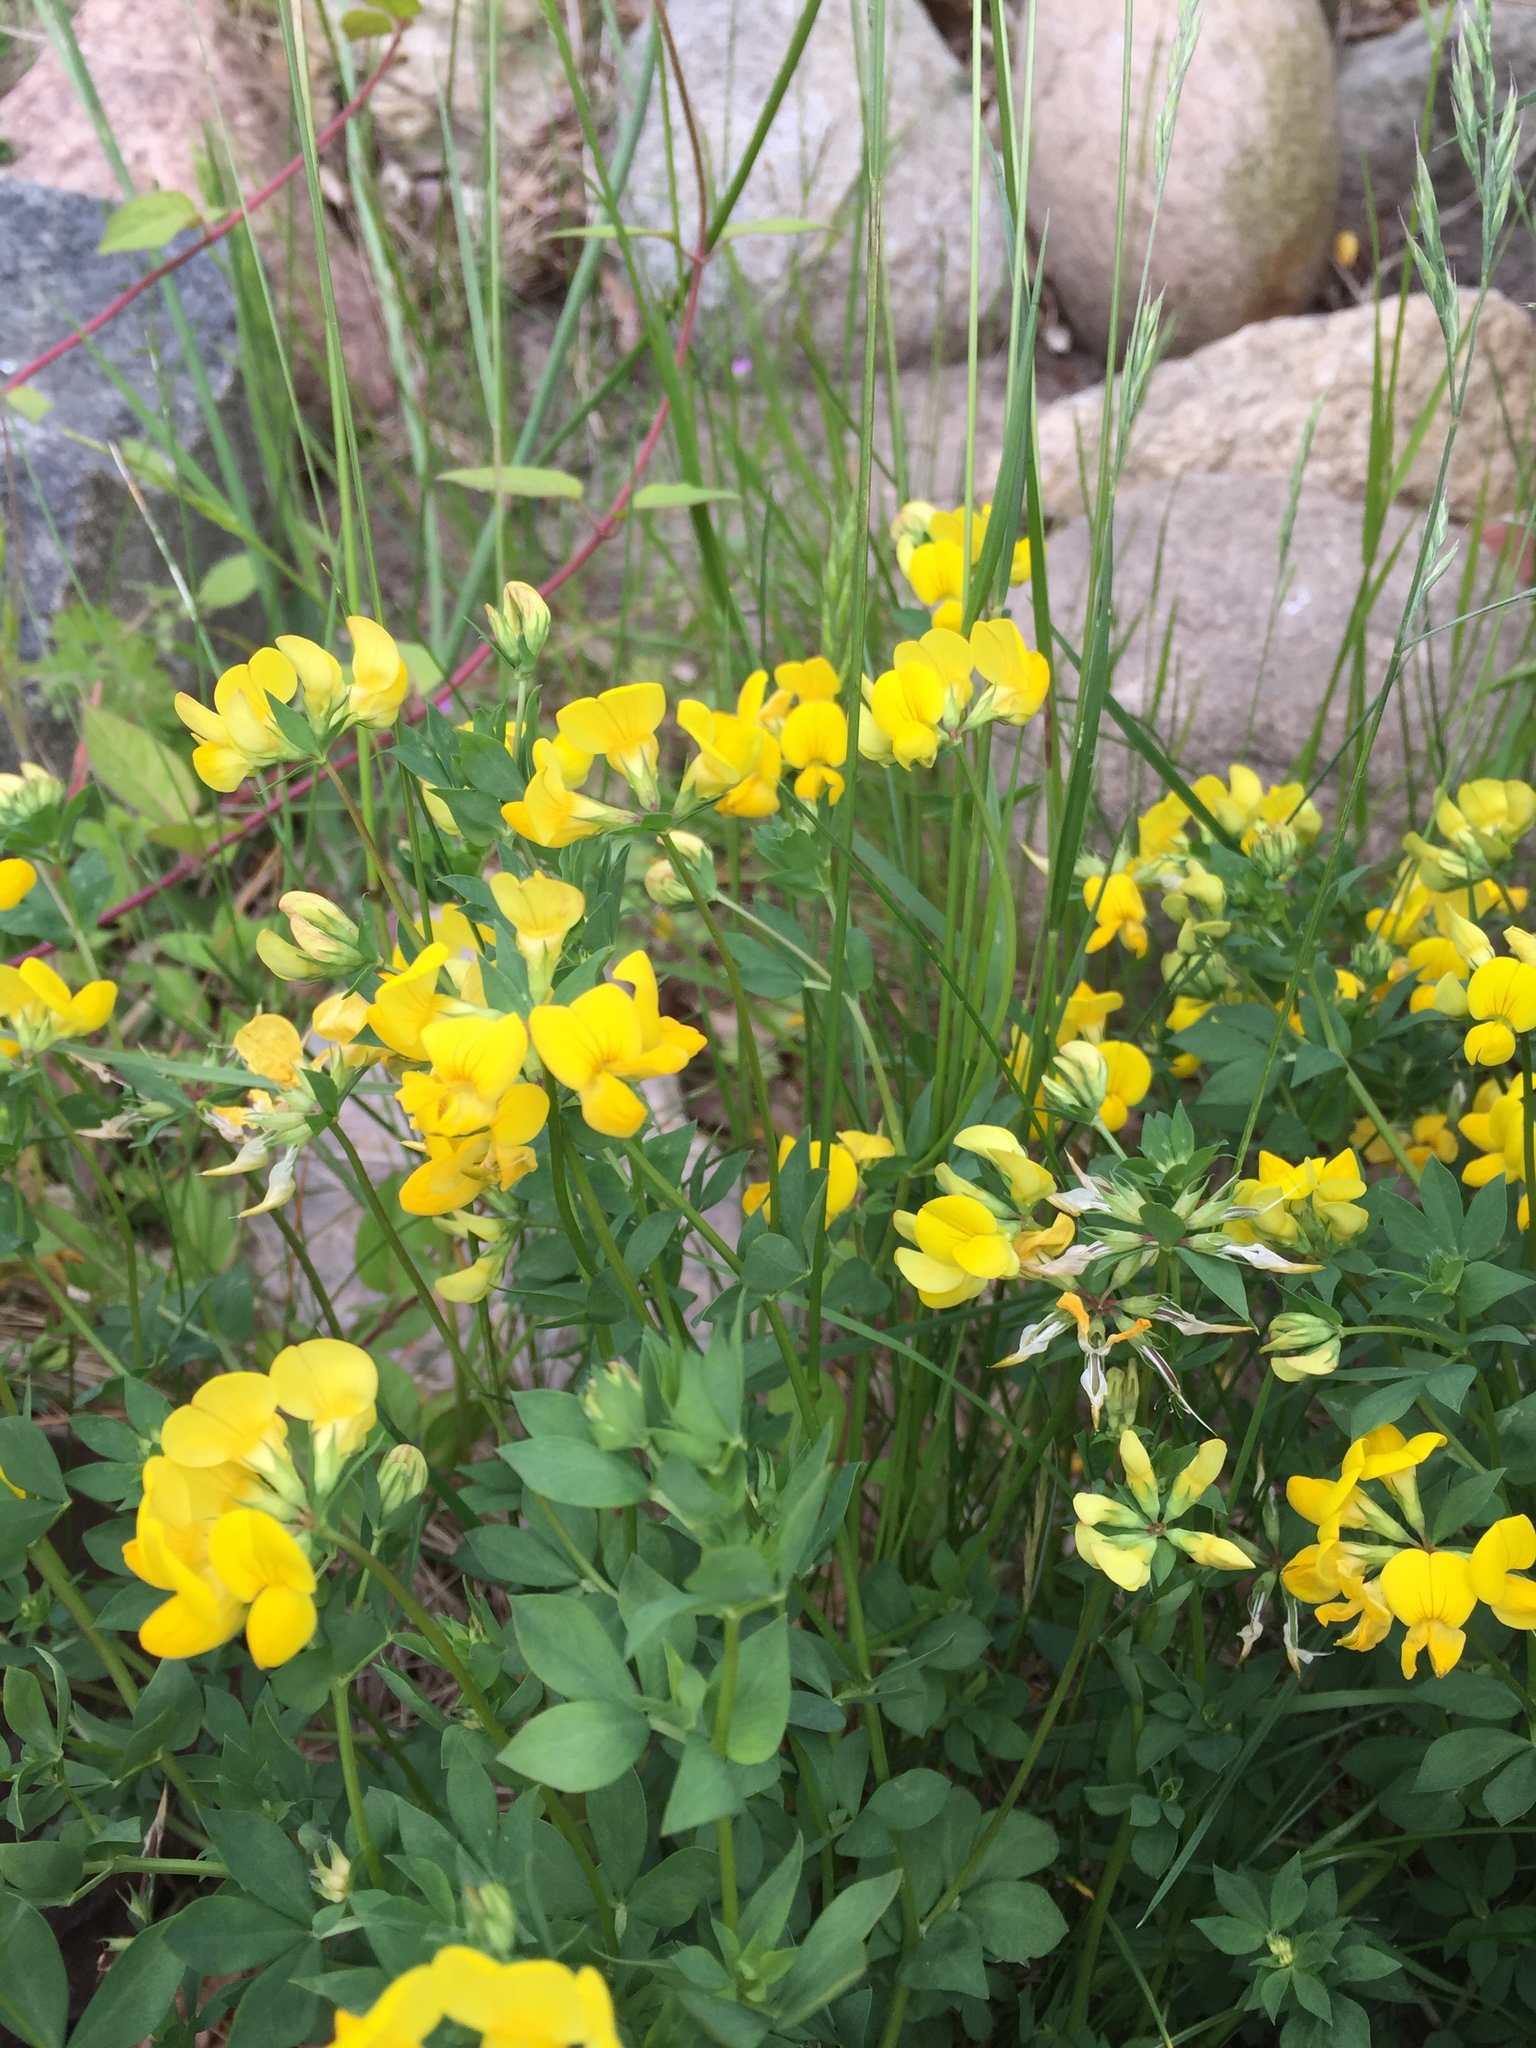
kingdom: Plantae
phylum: Tracheophyta
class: Magnoliopsida
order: Fabales
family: Fabaceae
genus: Lotus
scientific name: Lotus corniculatus
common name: Common bird's-foot-trefoil
